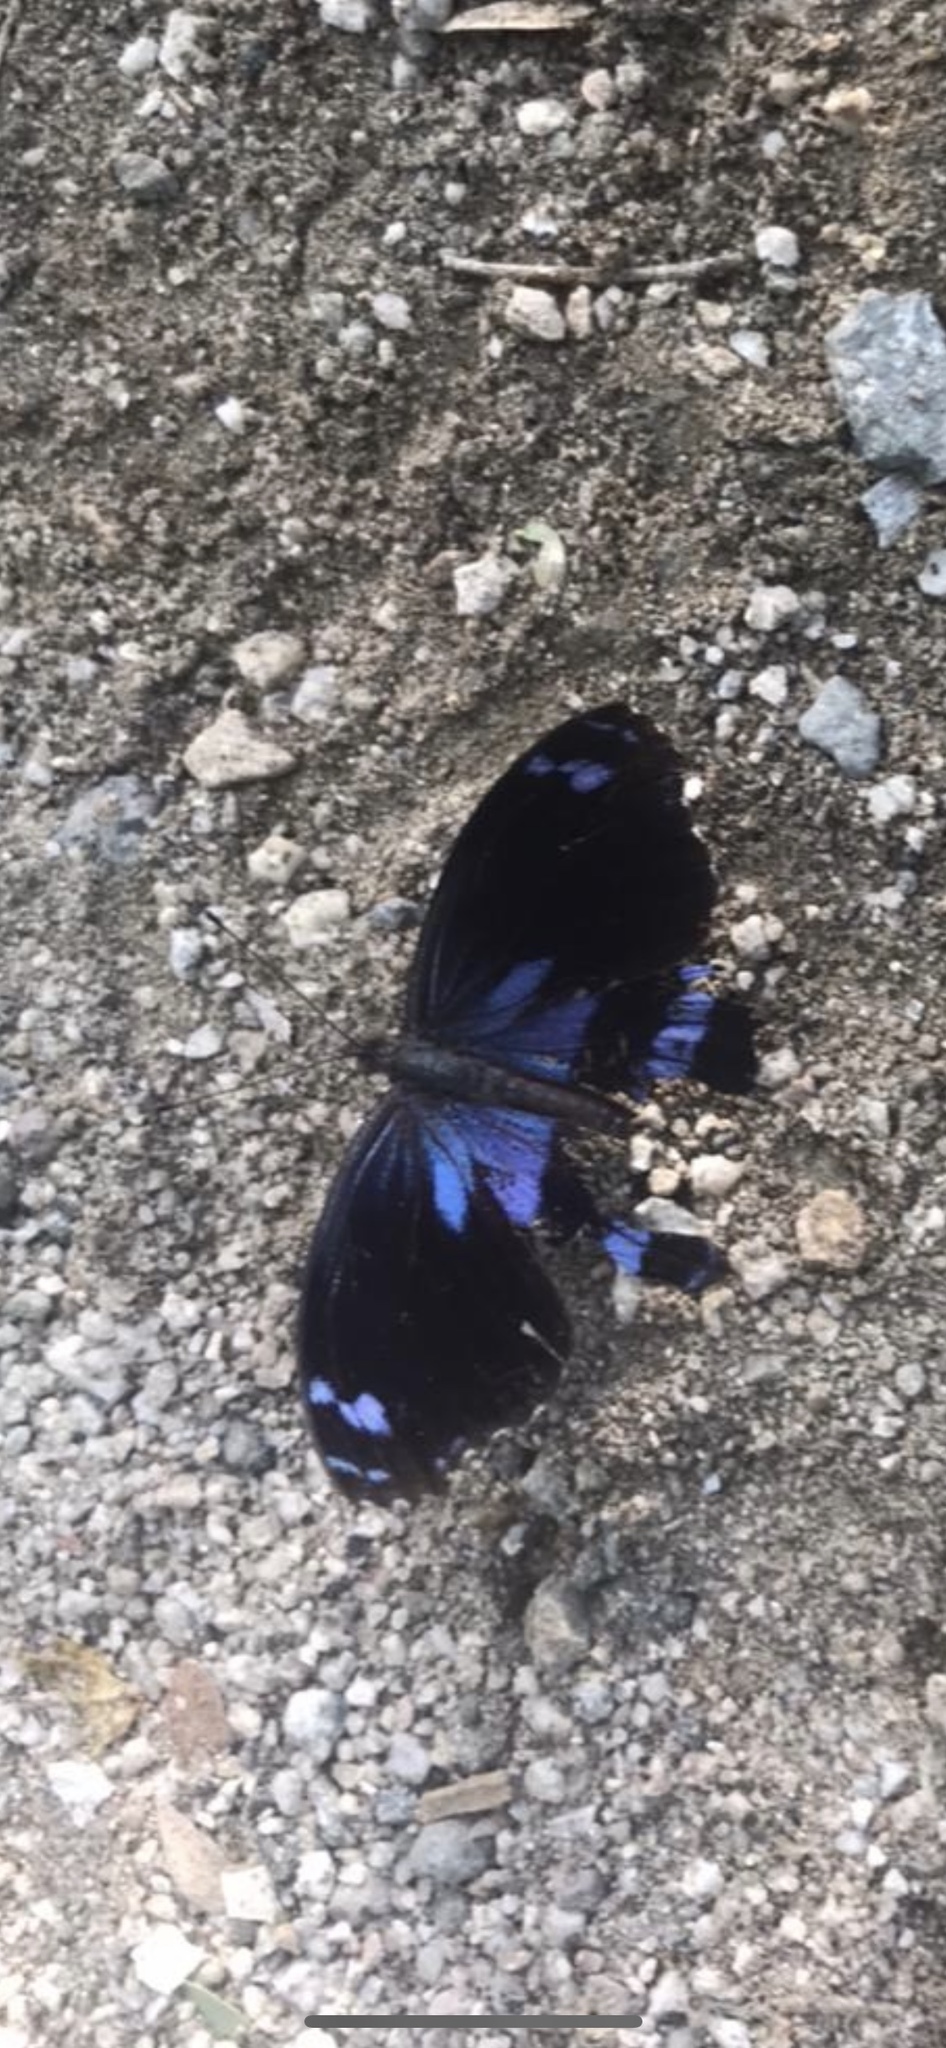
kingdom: Animalia
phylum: Arthropoda
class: Insecta
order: Lepidoptera
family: Nymphalidae
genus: Myscelia
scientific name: Myscelia cyananthe
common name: Blackened bluewing
